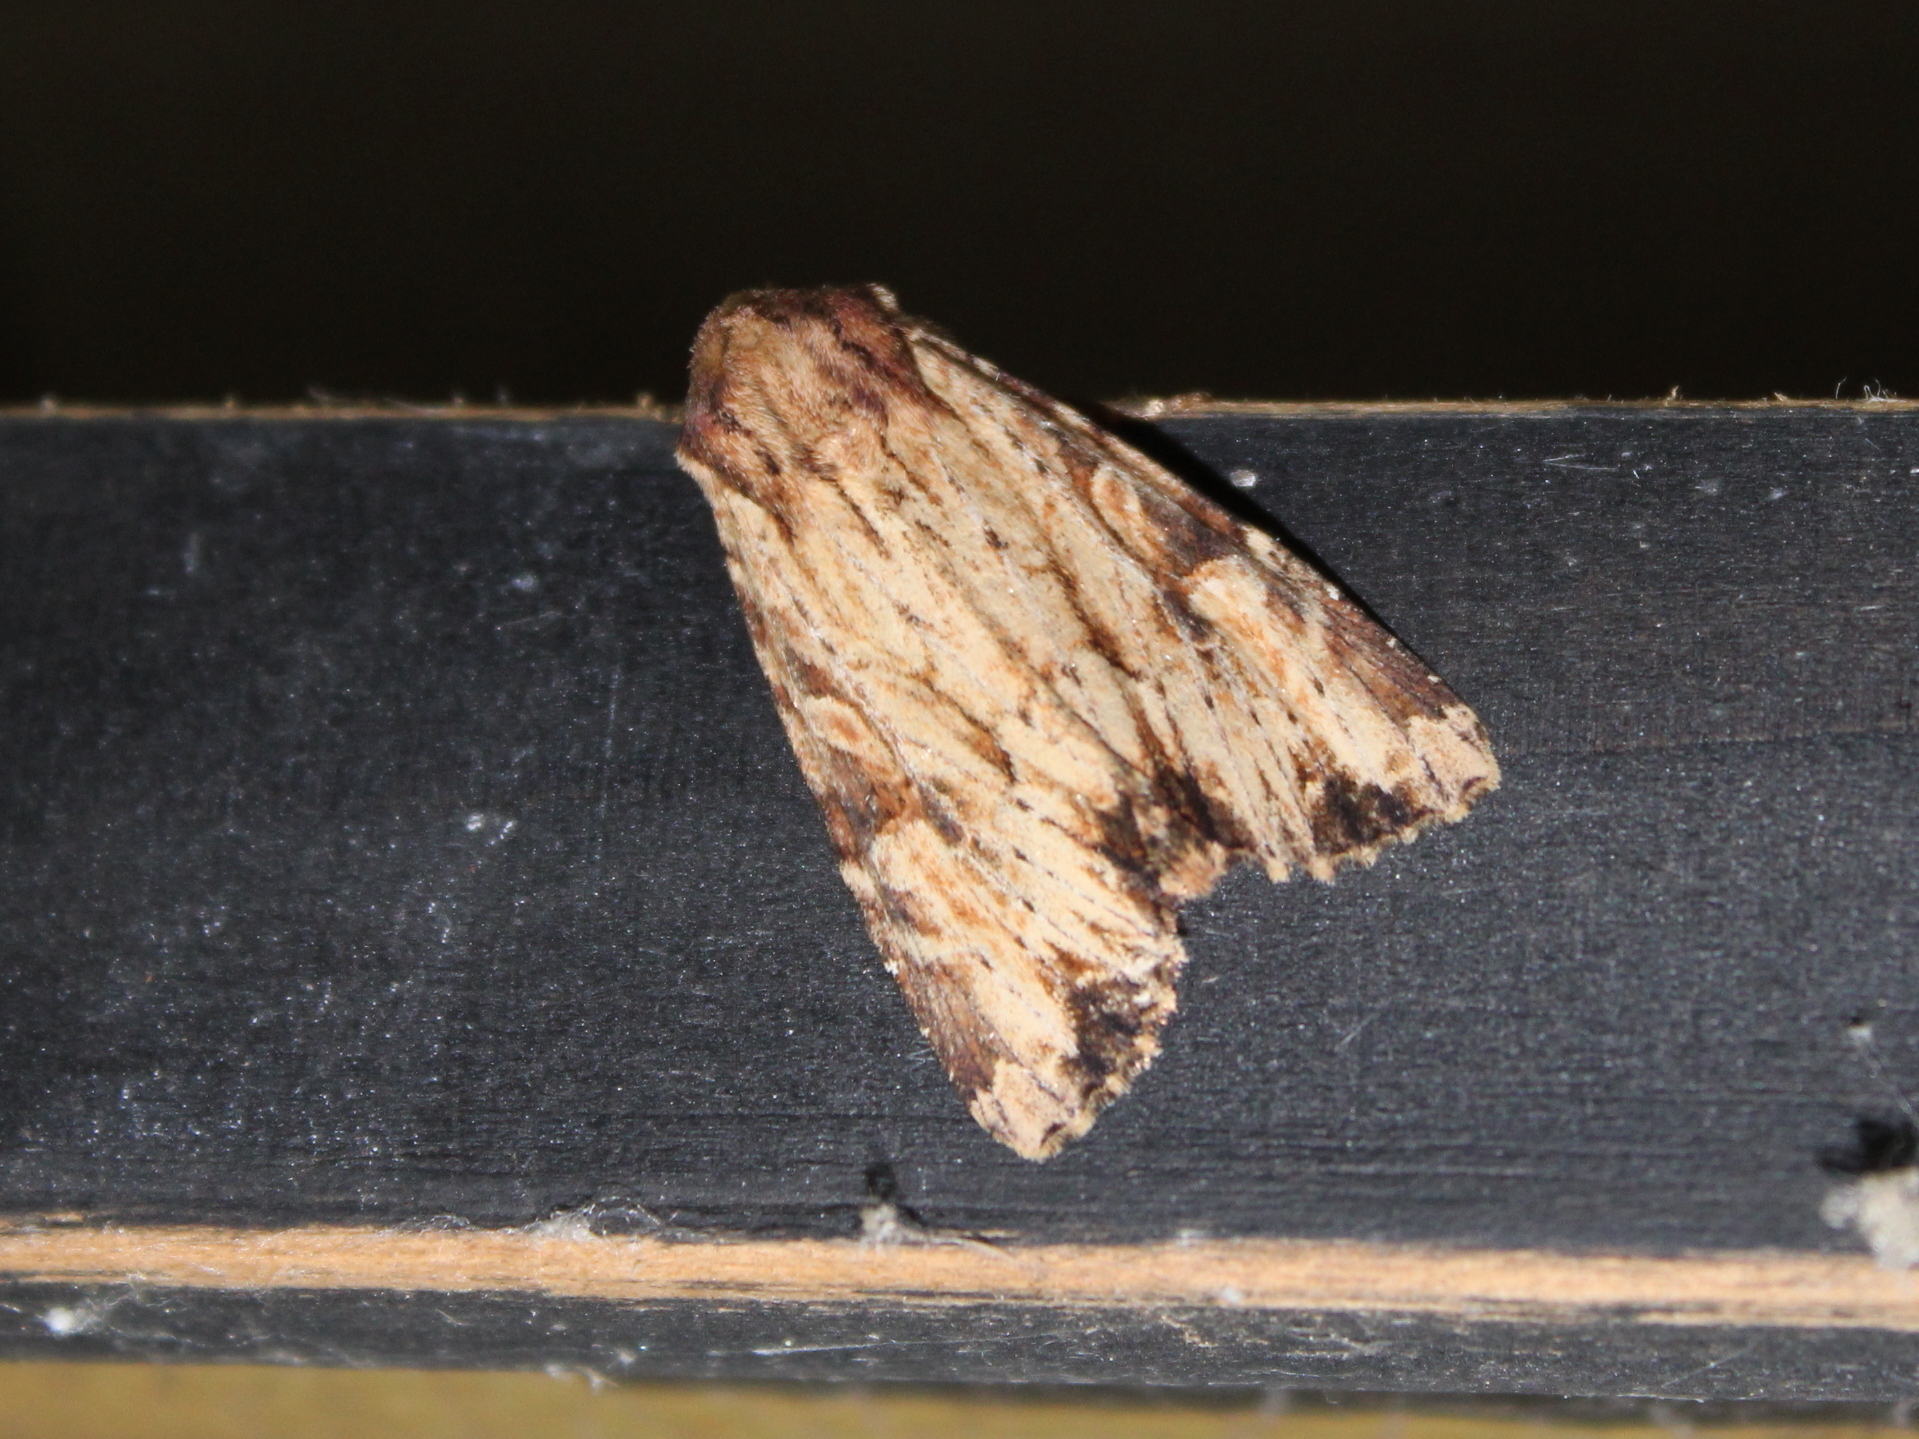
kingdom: Animalia
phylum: Arthropoda
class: Insecta
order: Lepidoptera
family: Noctuidae
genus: Apamea
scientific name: Apamea lignicolora
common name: Wood-colored apamea moth
